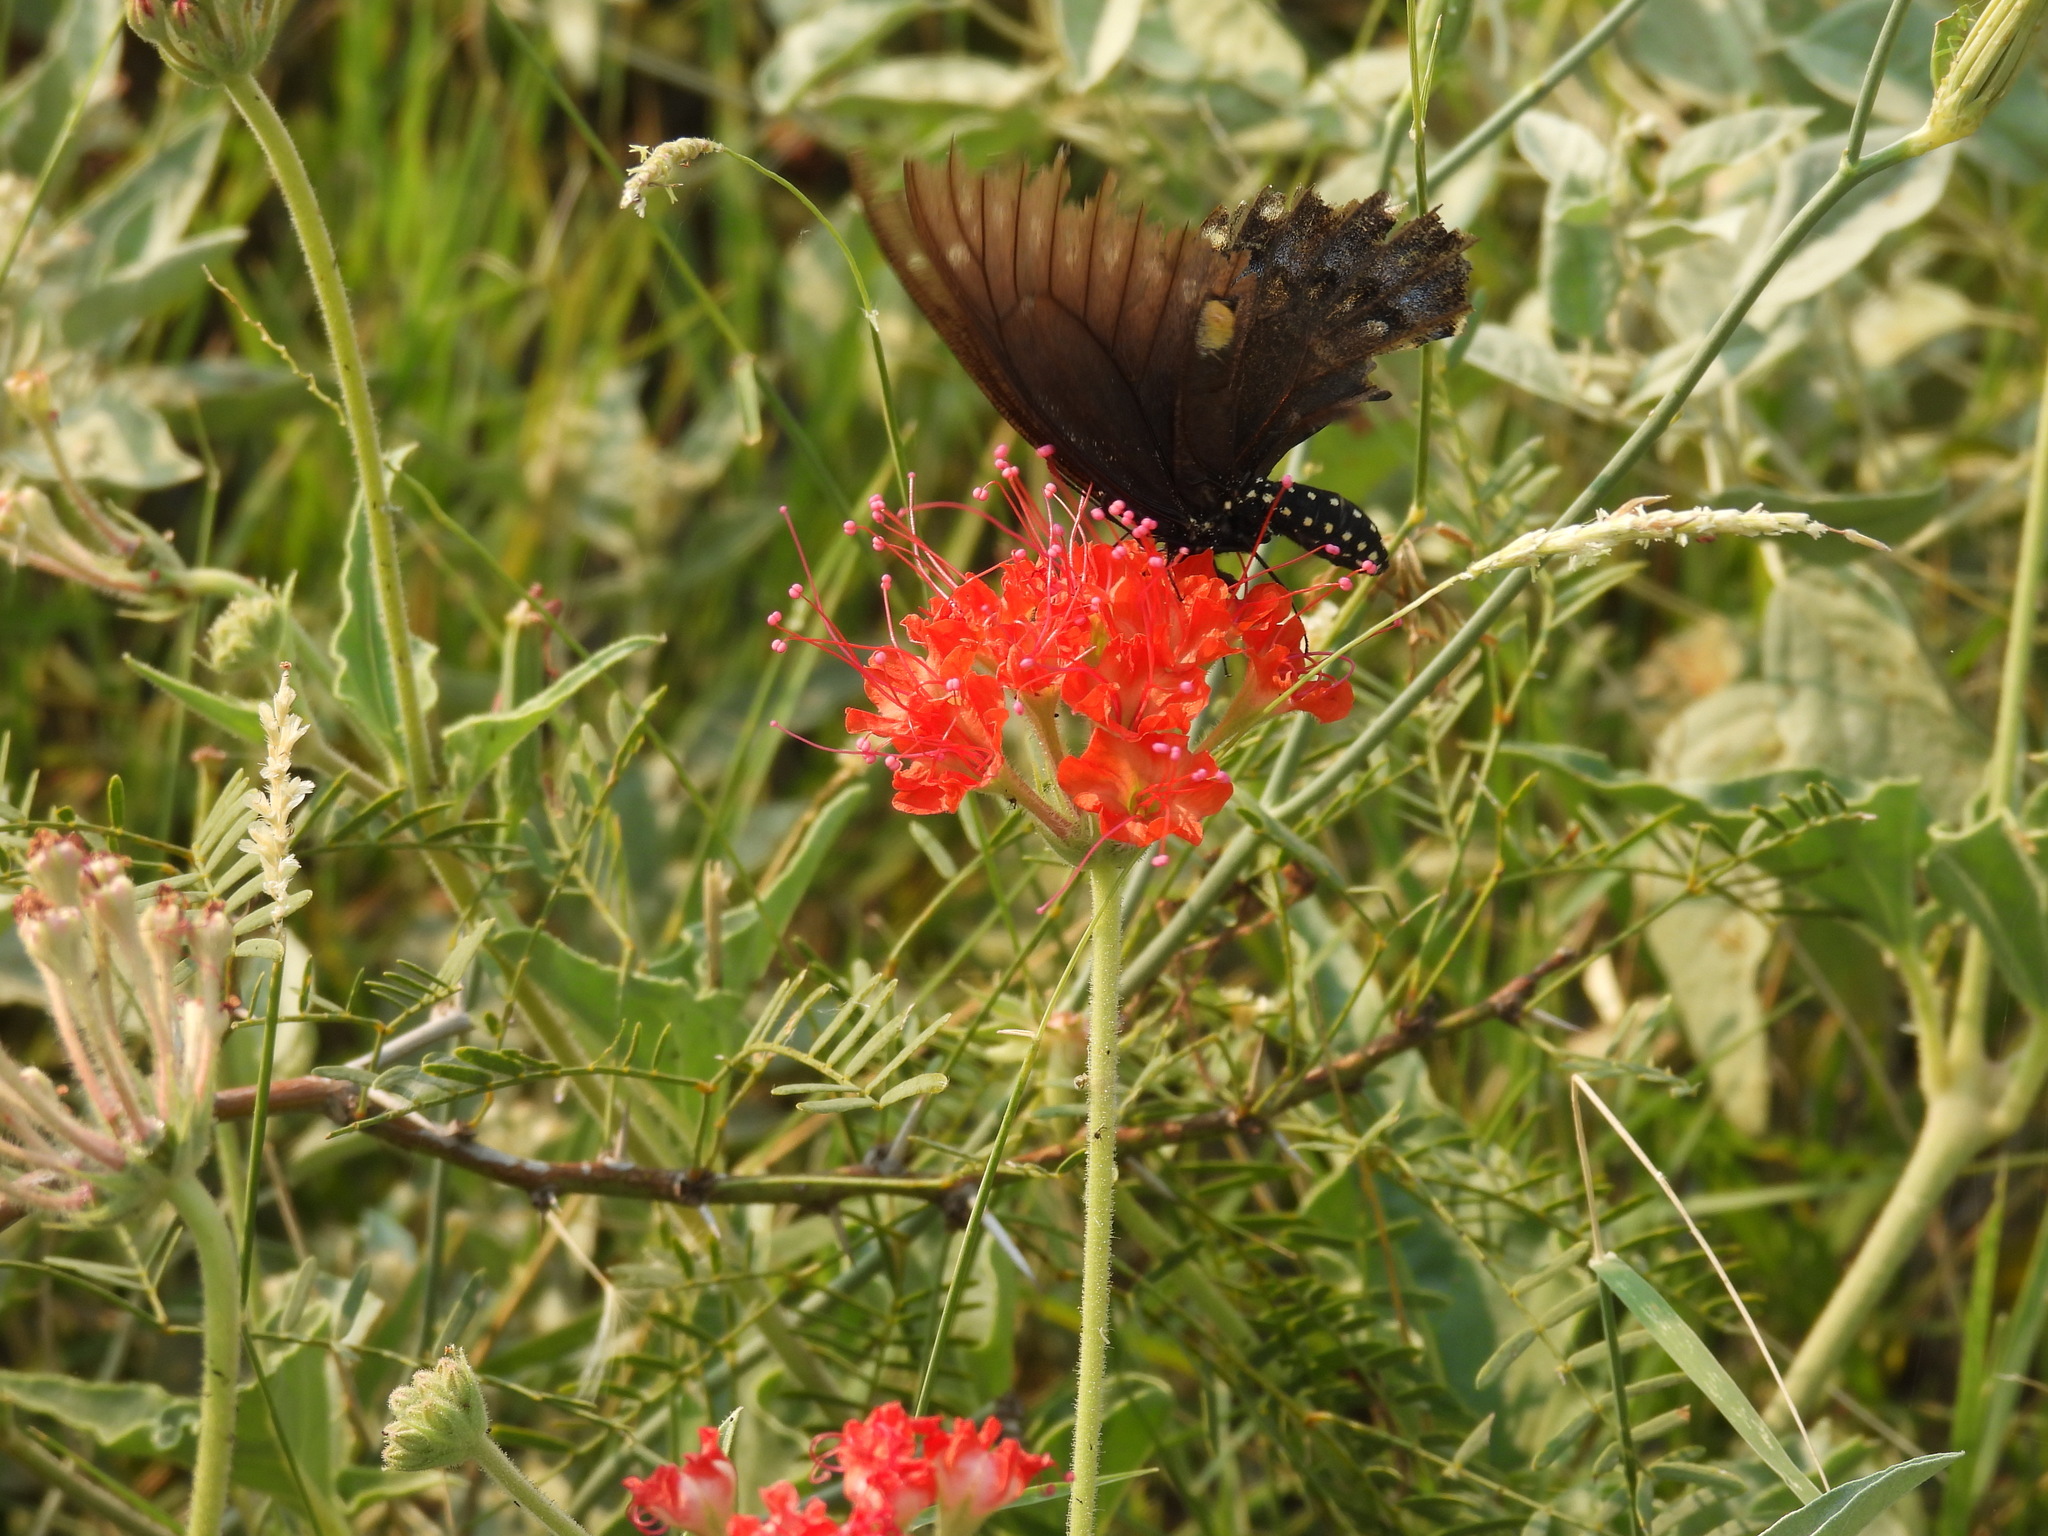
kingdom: Animalia
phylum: Arthropoda
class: Insecta
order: Lepidoptera
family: Papilionidae
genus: Papilio
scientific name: Papilio polyxenes
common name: Black swallowtail
